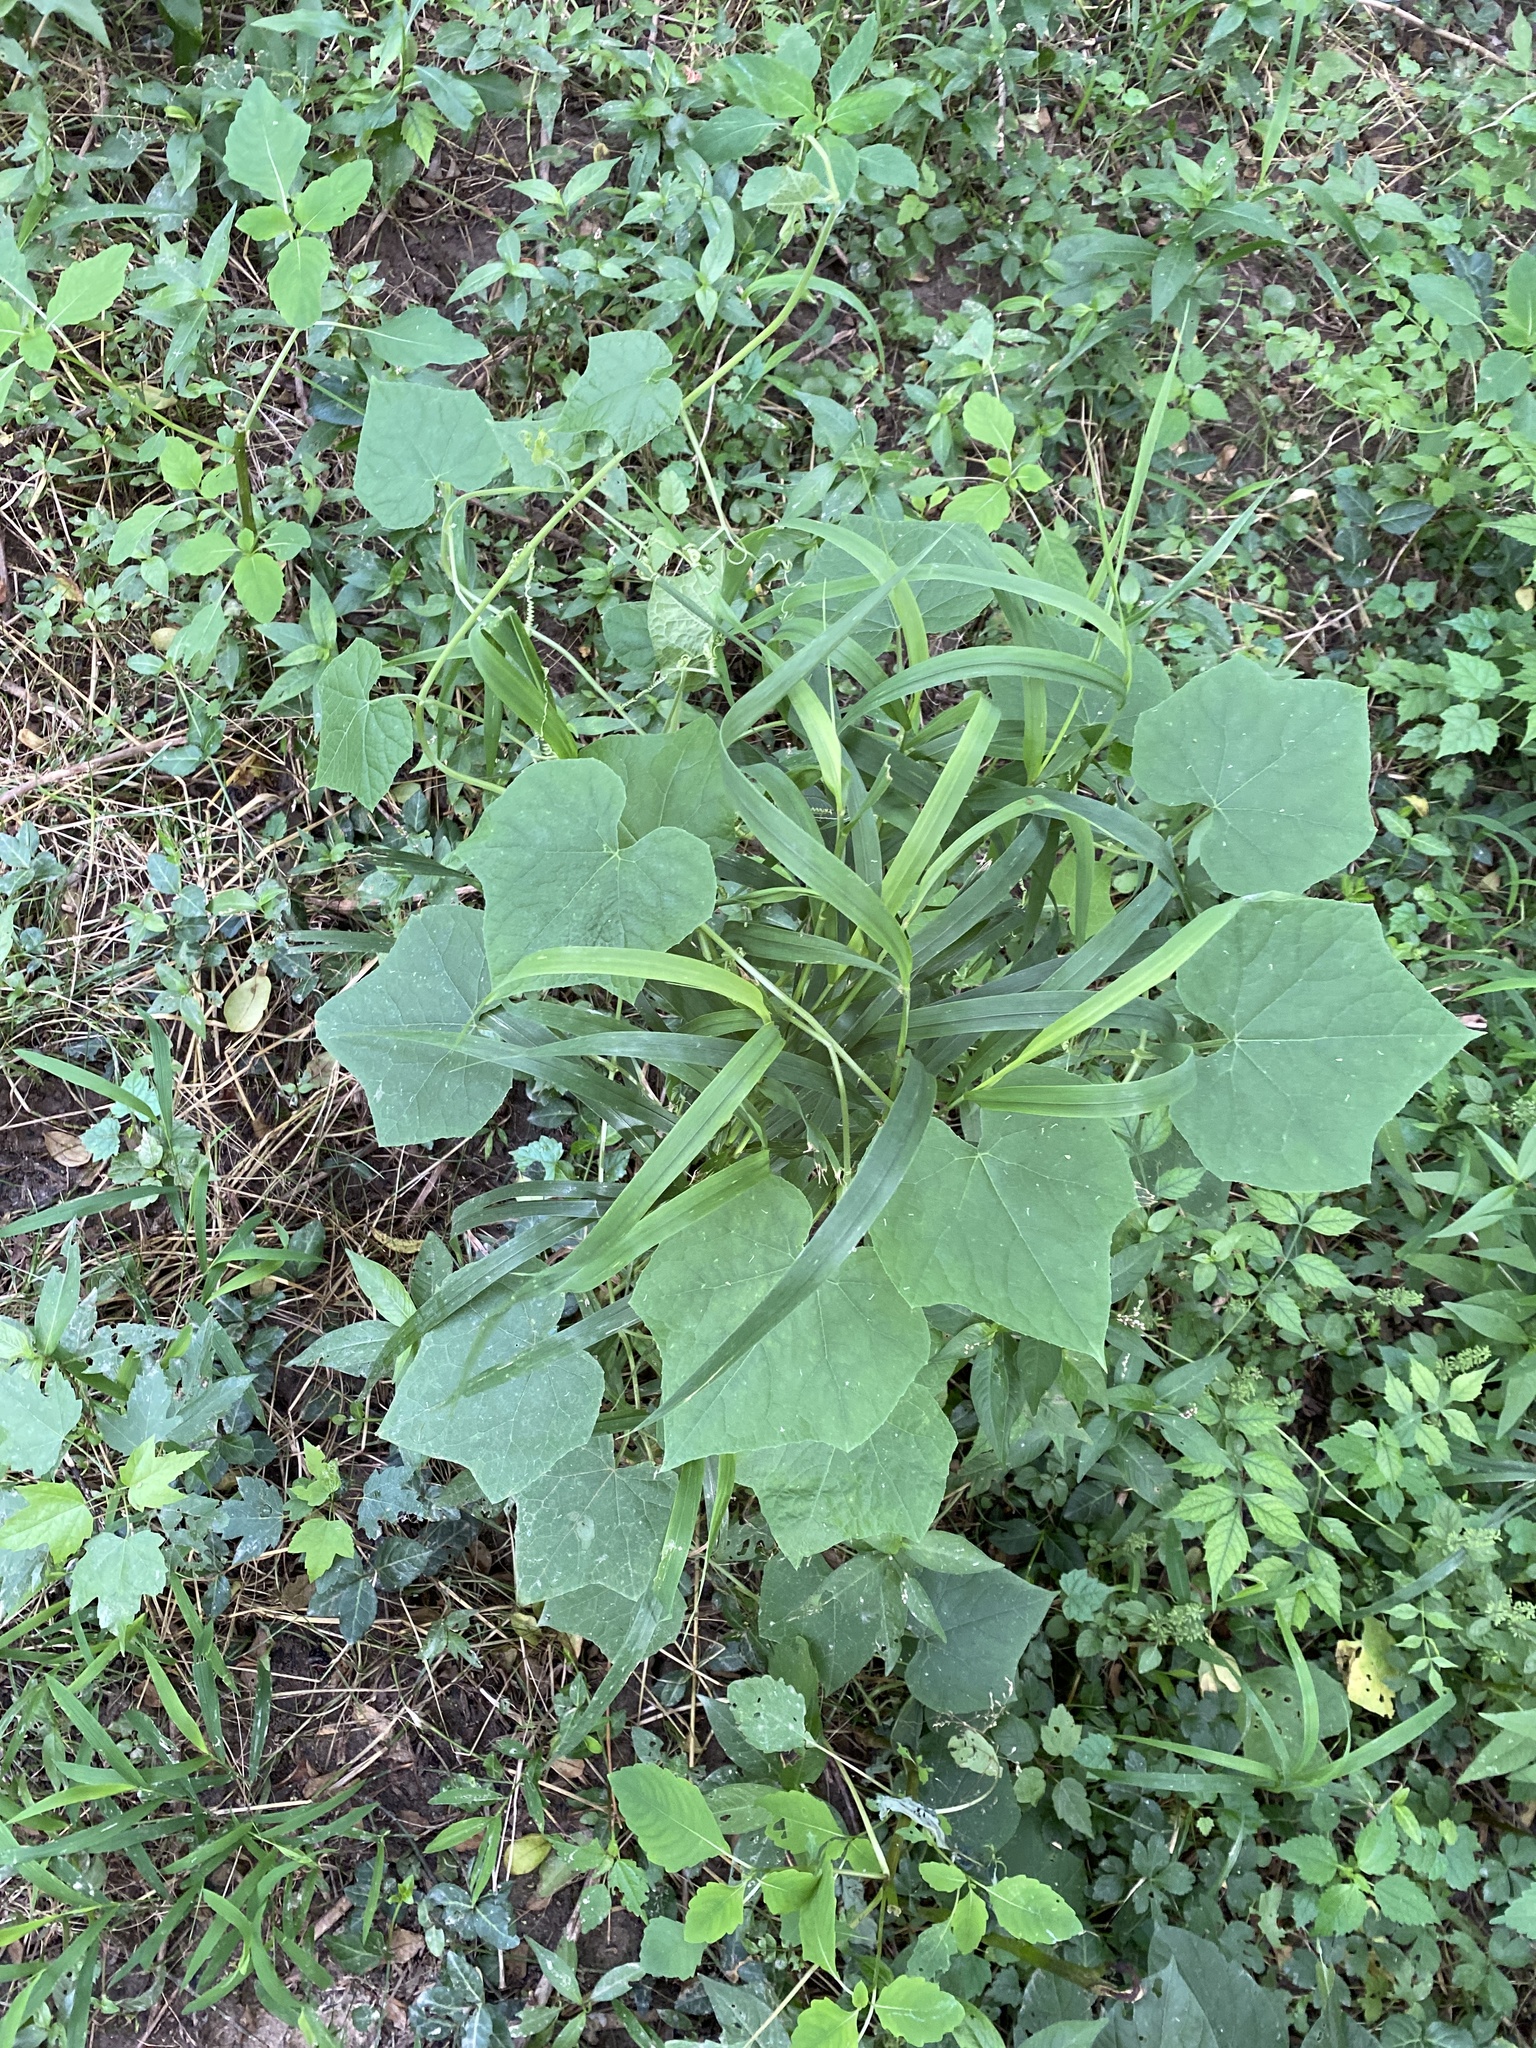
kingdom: Plantae
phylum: Tracheophyta
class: Magnoliopsida
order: Cucurbitales
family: Cucurbitaceae
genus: Sicyos
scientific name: Sicyos angulatus
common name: Angled burr cucumber
